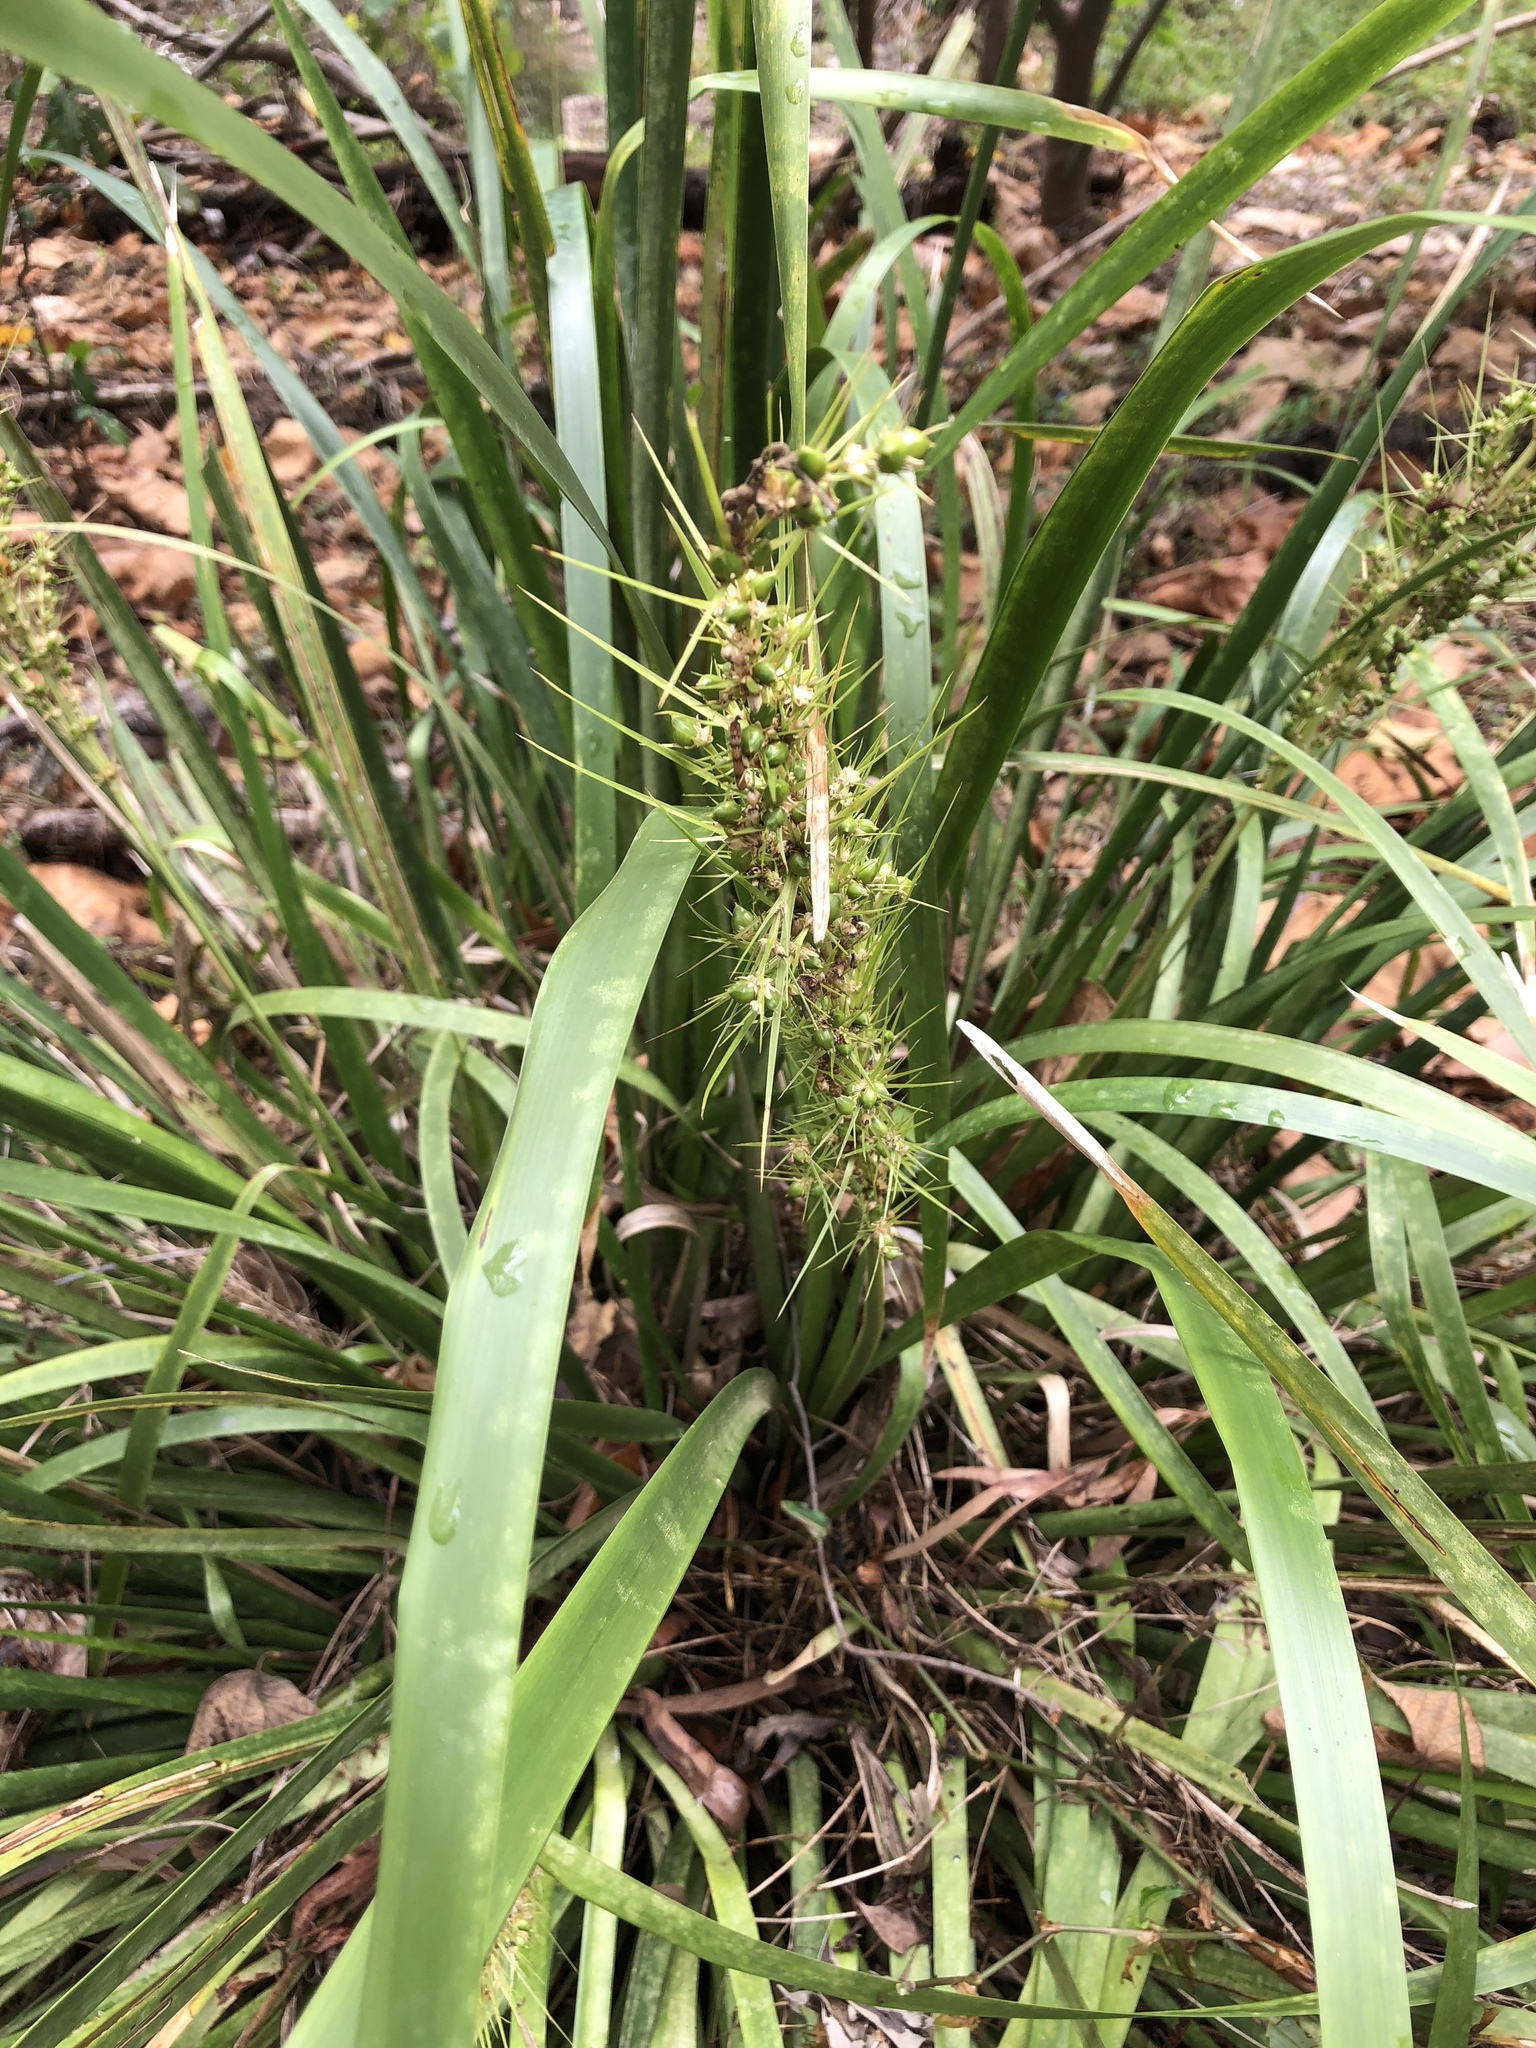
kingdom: Plantae
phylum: Tracheophyta
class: Liliopsida
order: Asparagales
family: Asparagaceae
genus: Lomandra
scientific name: Lomandra hystrix
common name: Creek mat-rush
